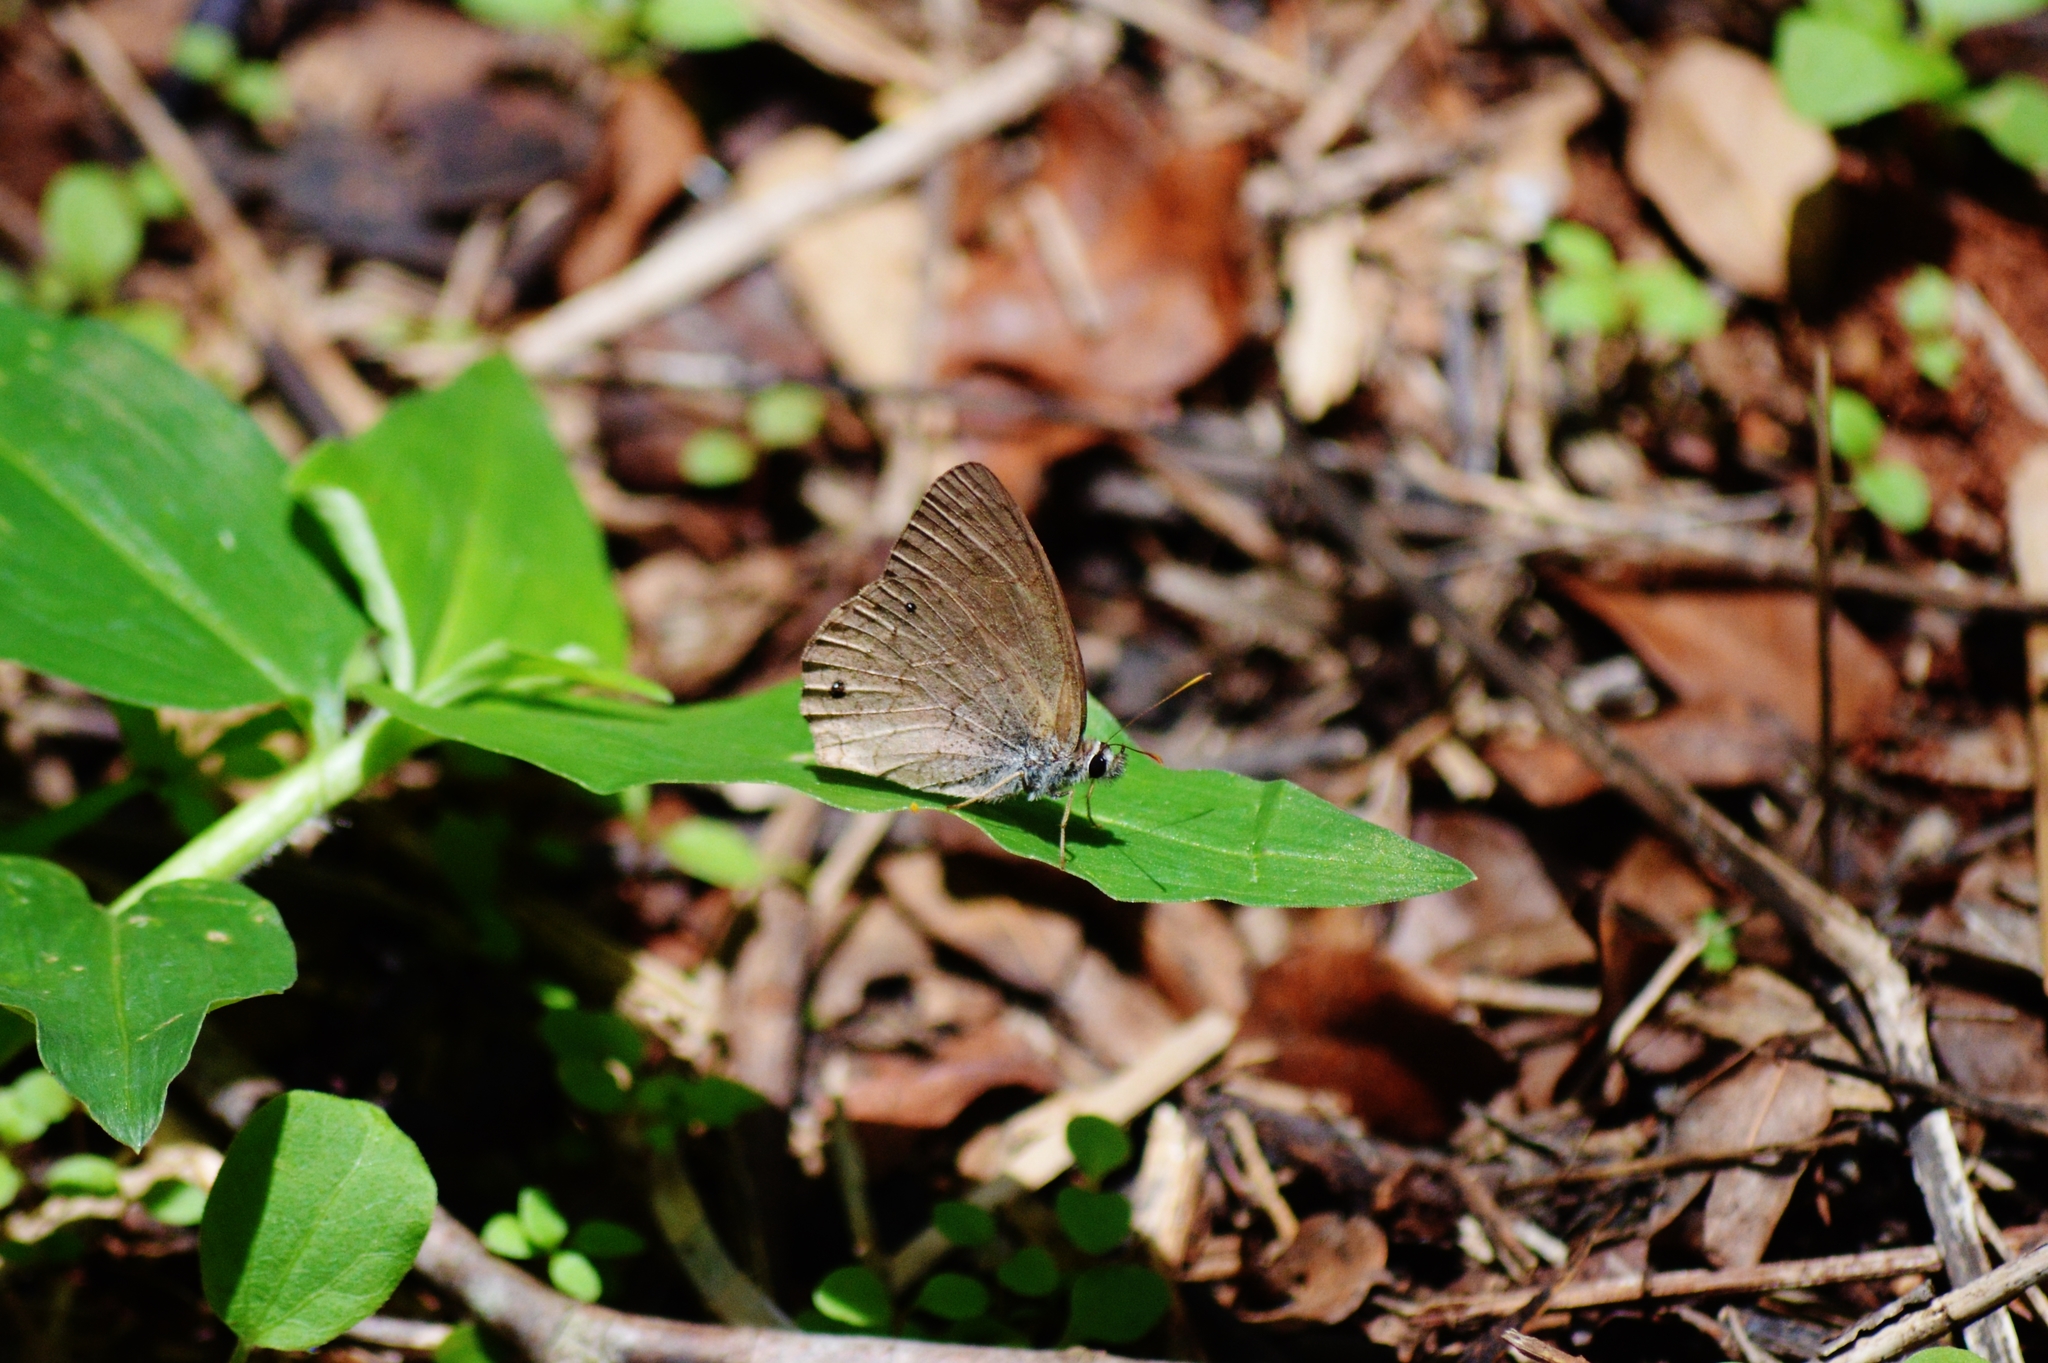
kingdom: Animalia
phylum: Arthropoda
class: Insecta
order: Lepidoptera
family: Nymphalidae
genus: Euptychia
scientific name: Euptychia Cissia eous
